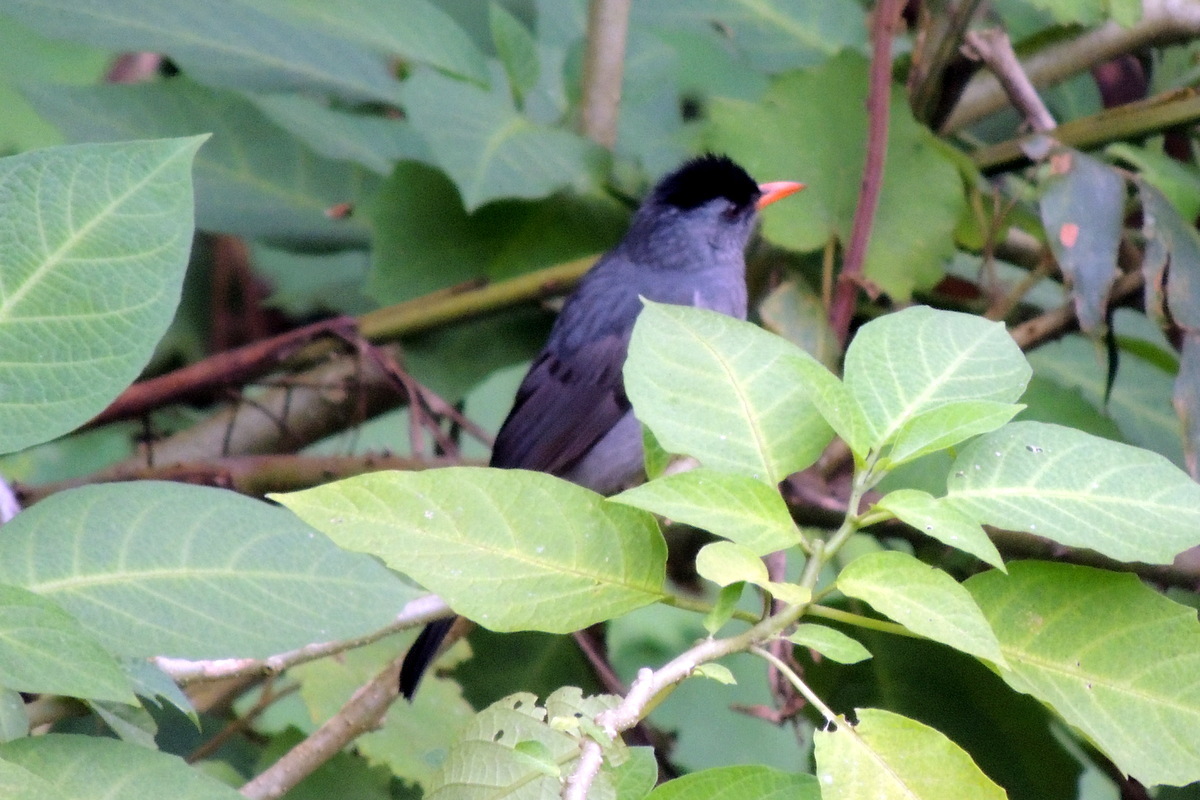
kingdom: Animalia
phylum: Chordata
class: Aves
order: Passeriformes
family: Pycnonotidae
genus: Hypsipetes
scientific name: Hypsipetes madagascariensis
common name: Malagasy bulbul
